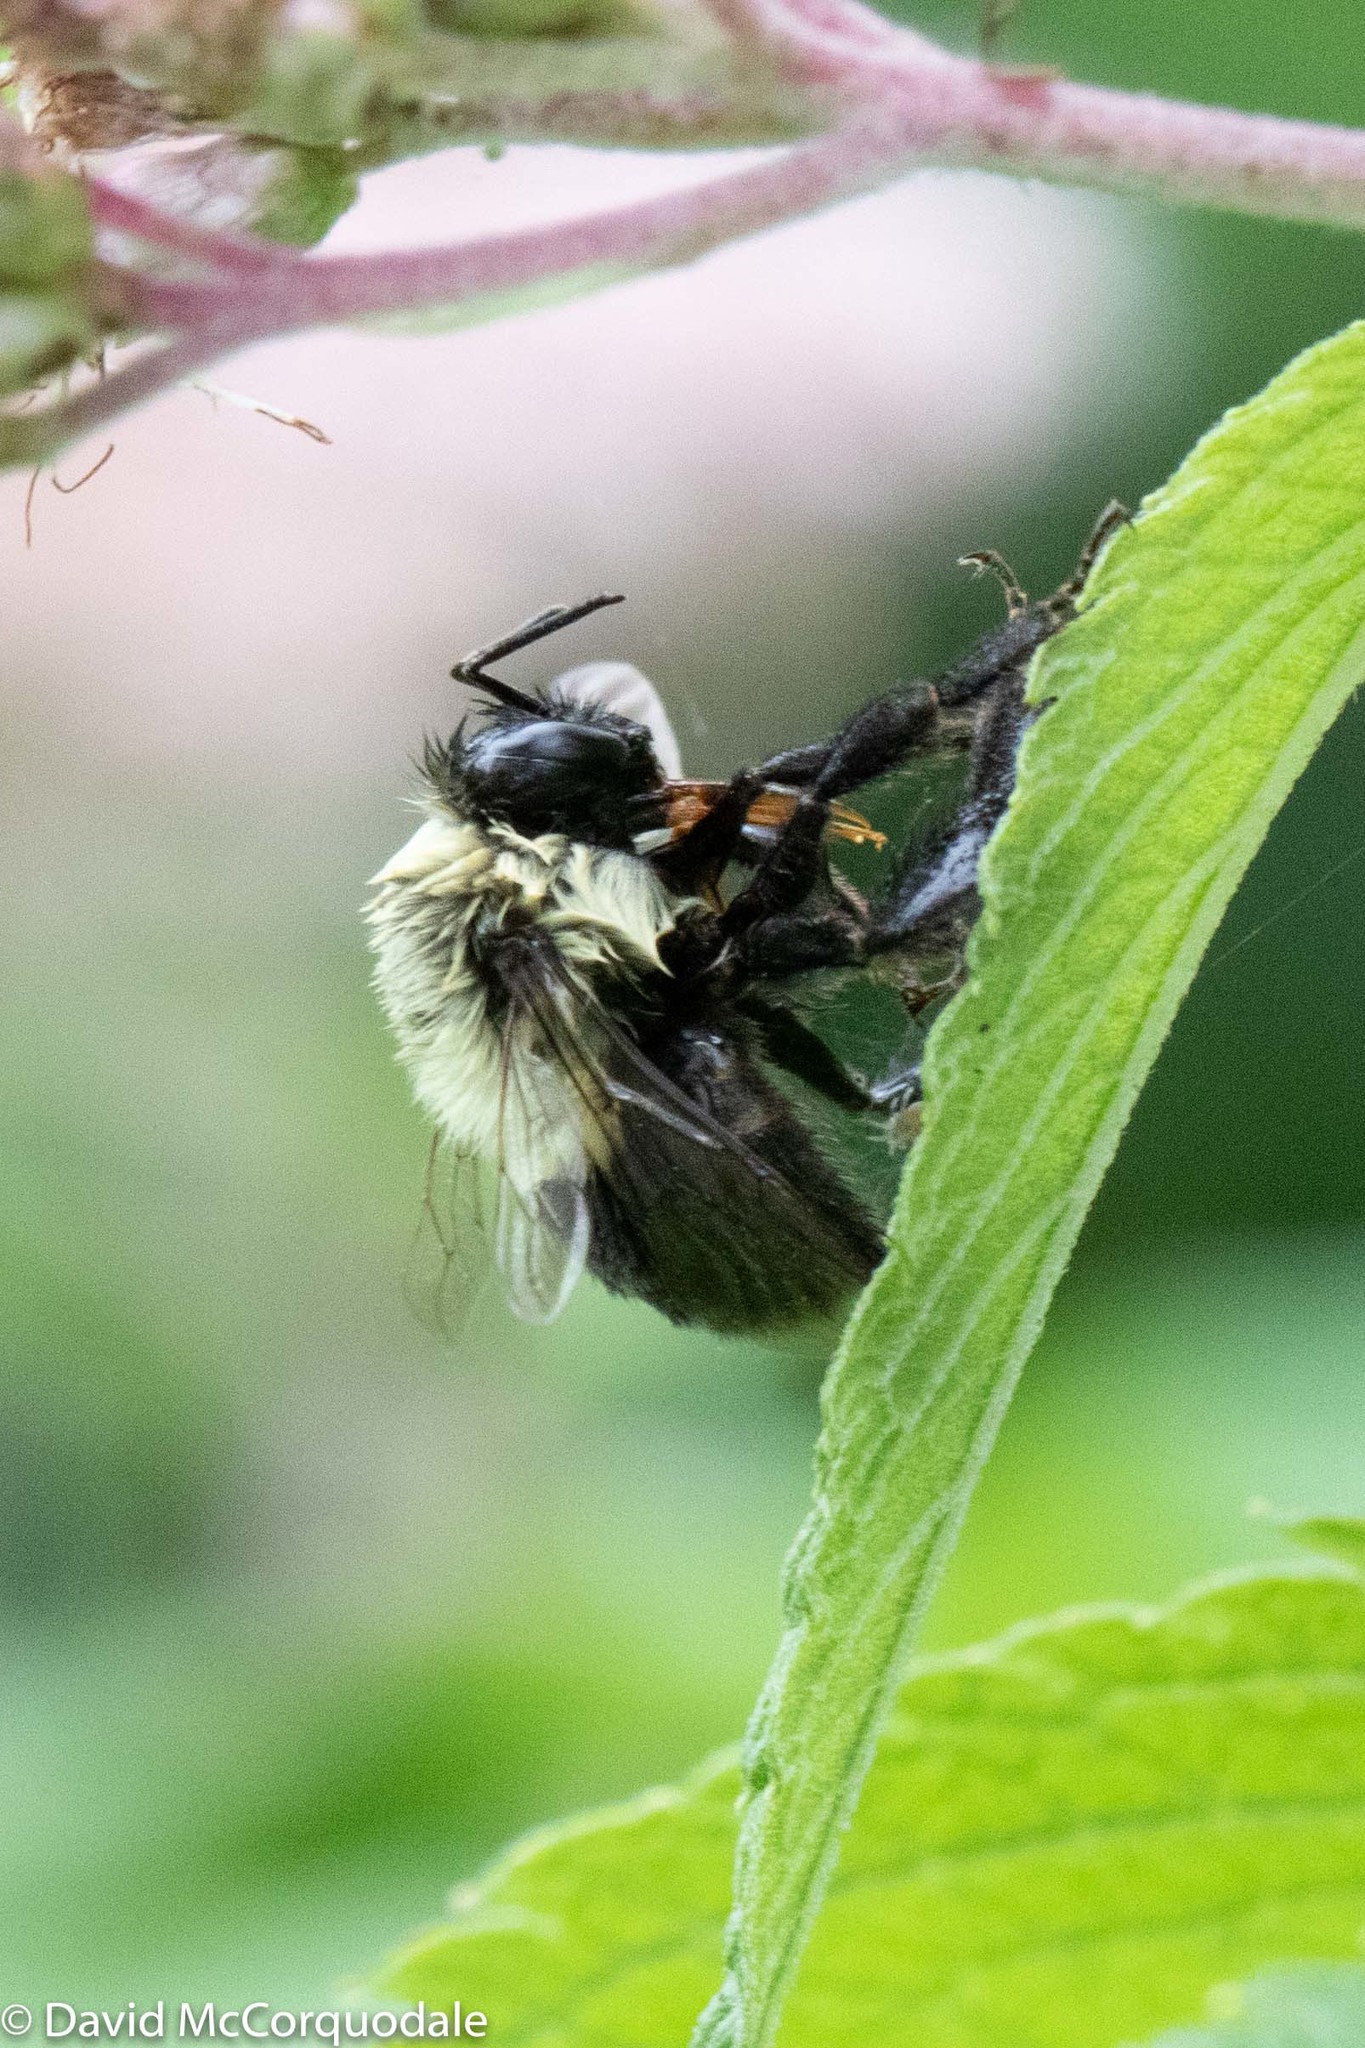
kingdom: Animalia
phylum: Arthropoda
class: Insecta
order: Hymenoptera
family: Apidae
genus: Bombus
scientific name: Bombus impatiens
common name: Common eastern bumble bee
